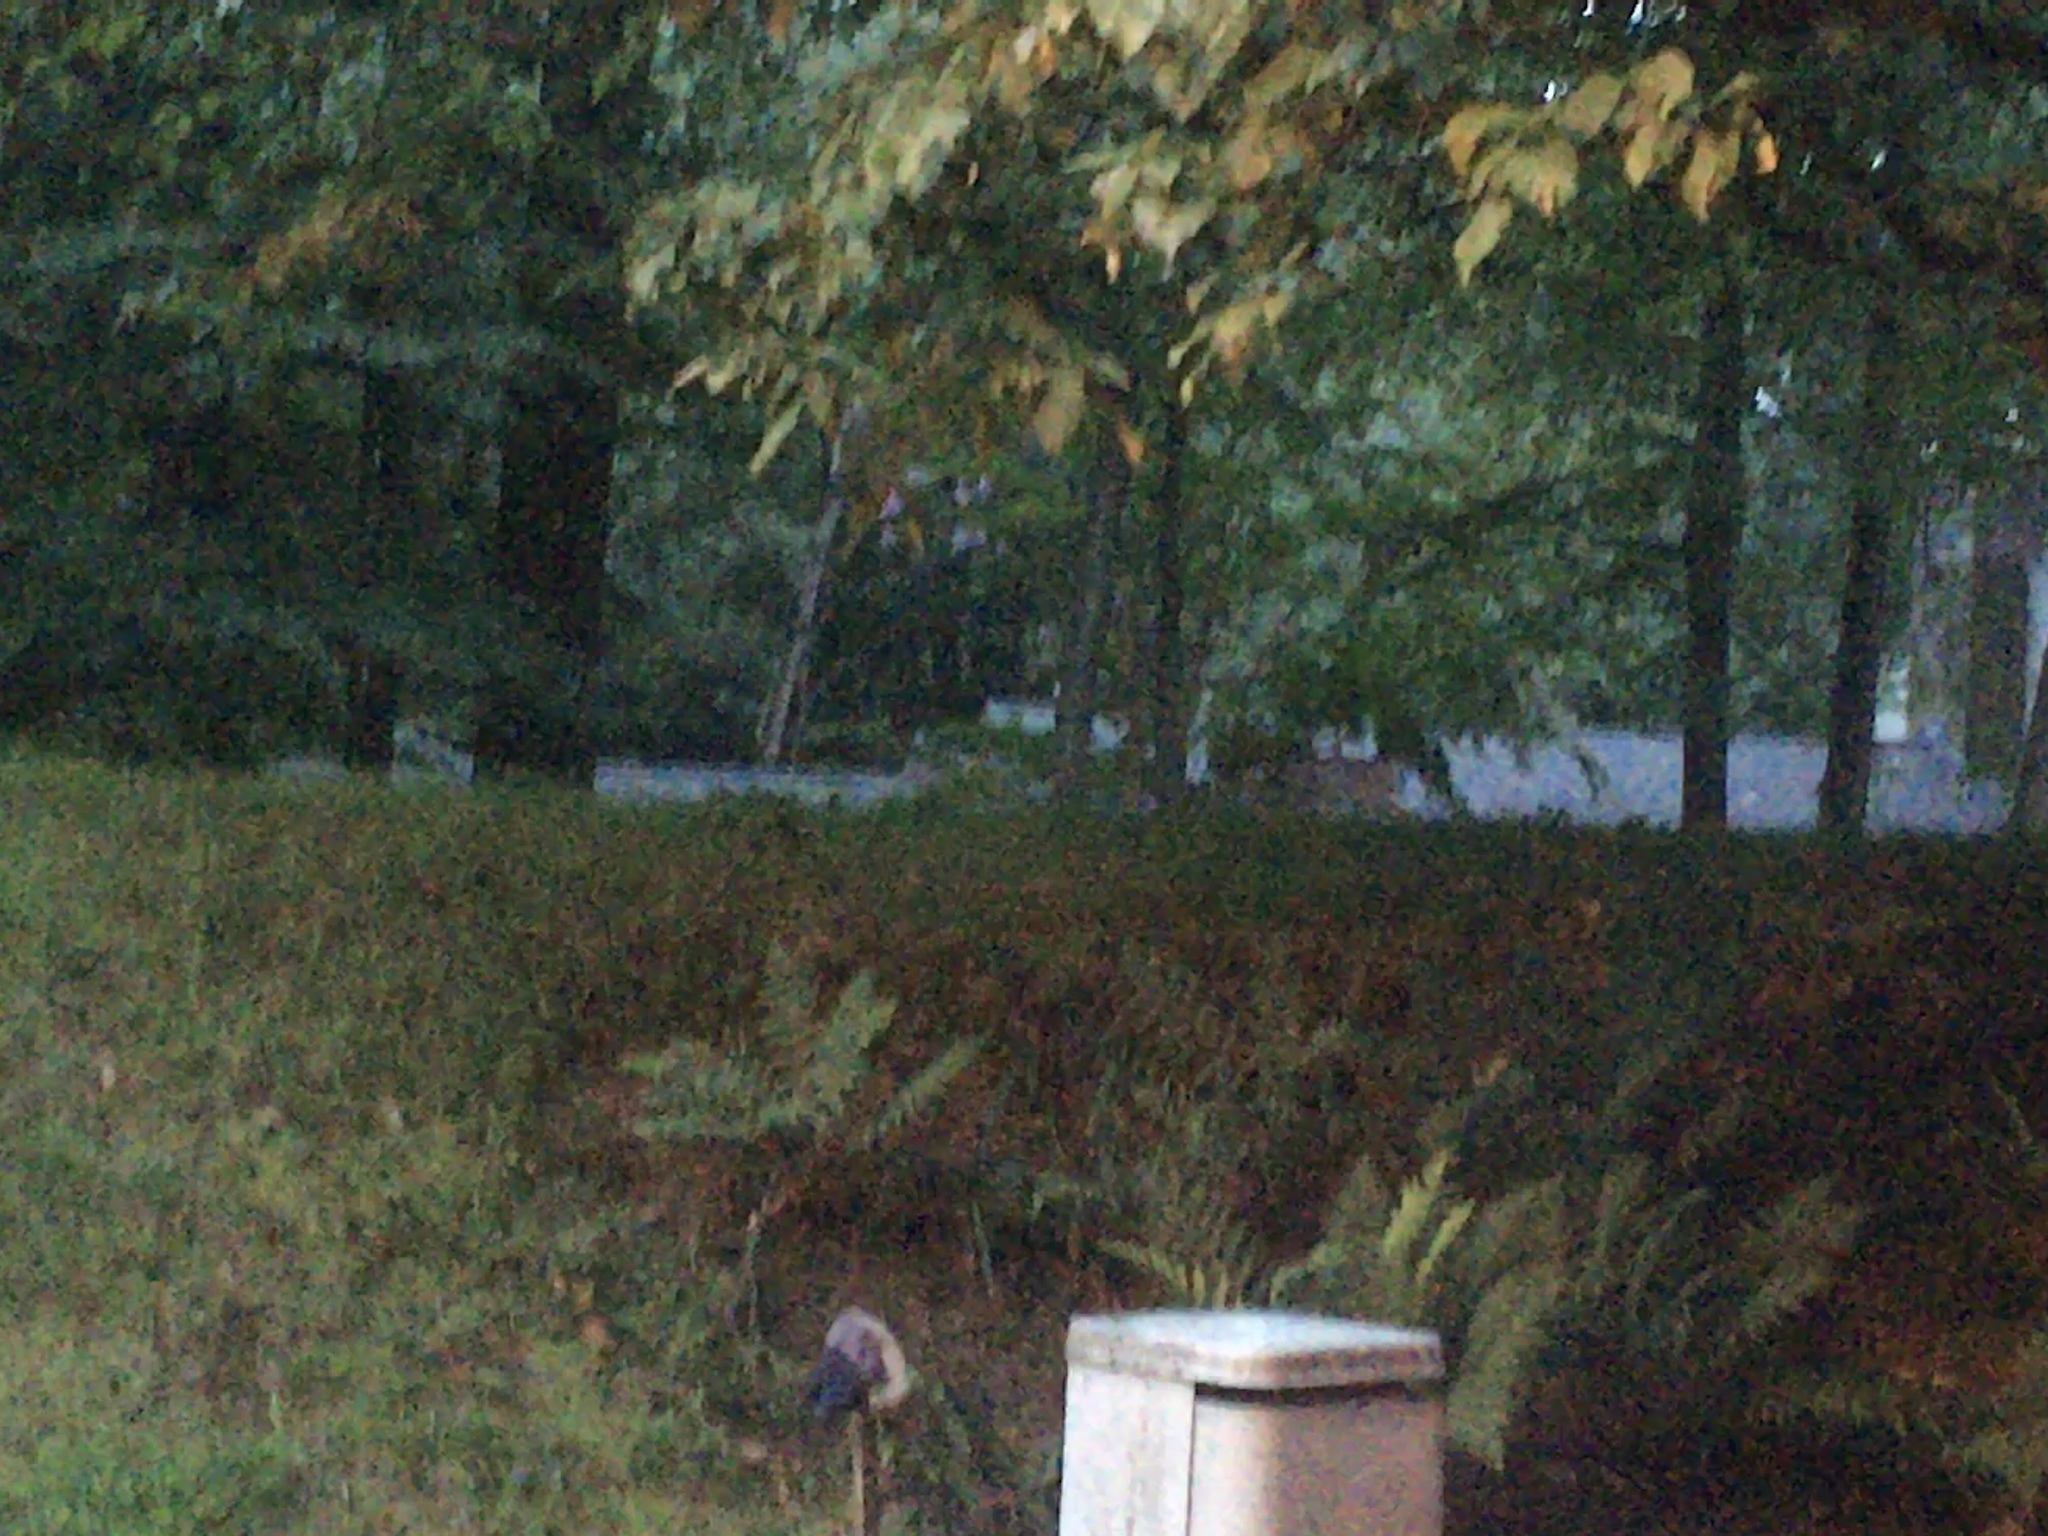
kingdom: Animalia
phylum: Chordata
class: Mammalia
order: Artiodactyla
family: Cervidae
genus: Odocoileus
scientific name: Odocoileus virginianus
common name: White-tailed deer
